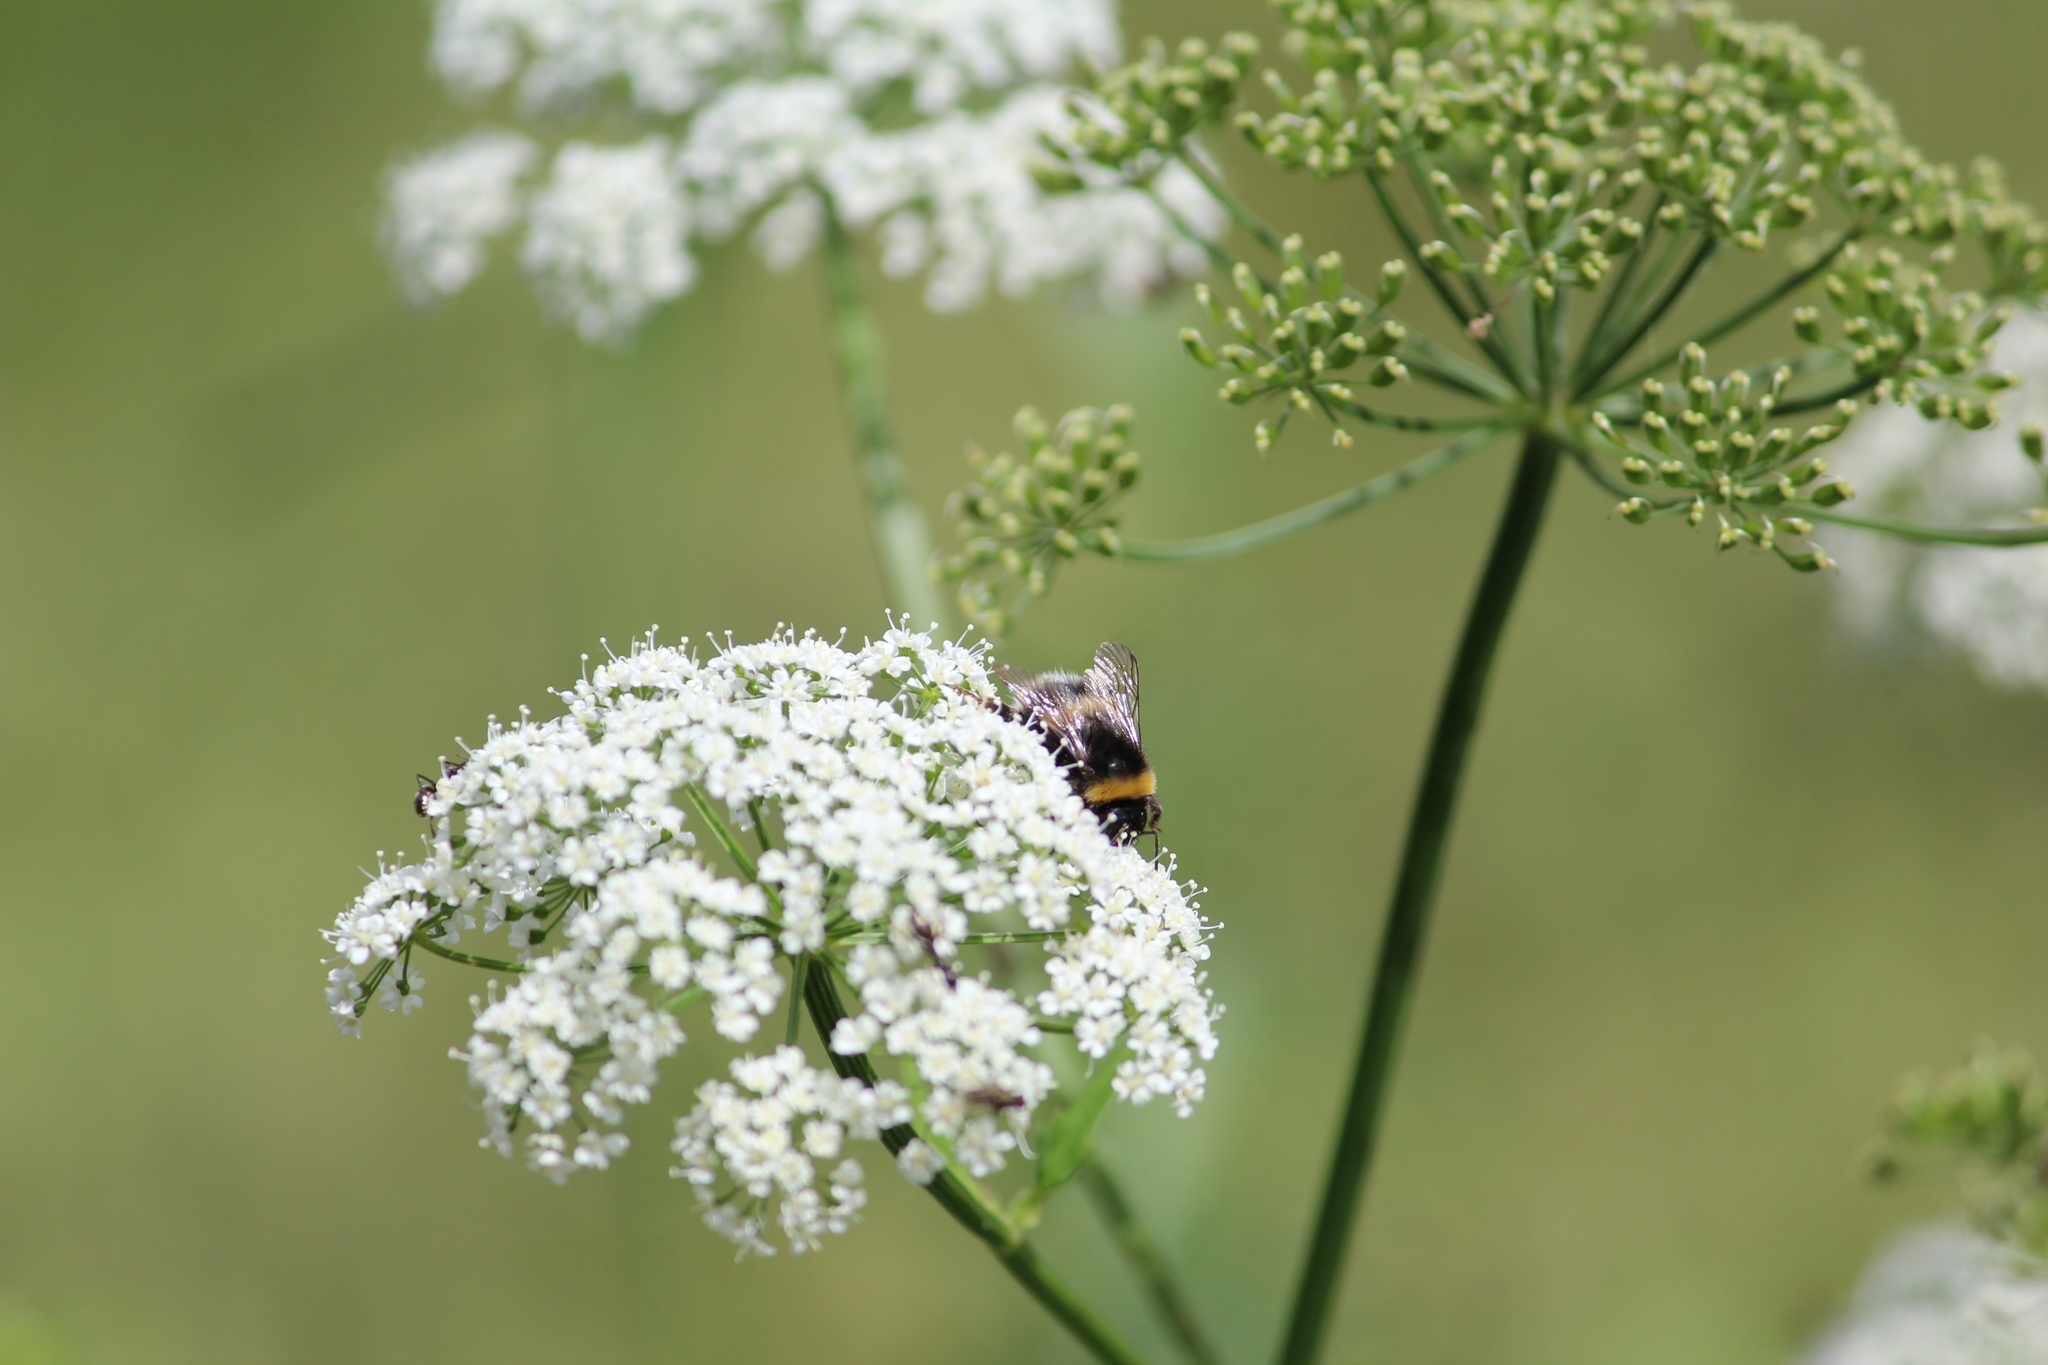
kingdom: Animalia
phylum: Arthropoda
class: Insecta
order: Hymenoptera
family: Apidae
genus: Bombus
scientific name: Bombus
